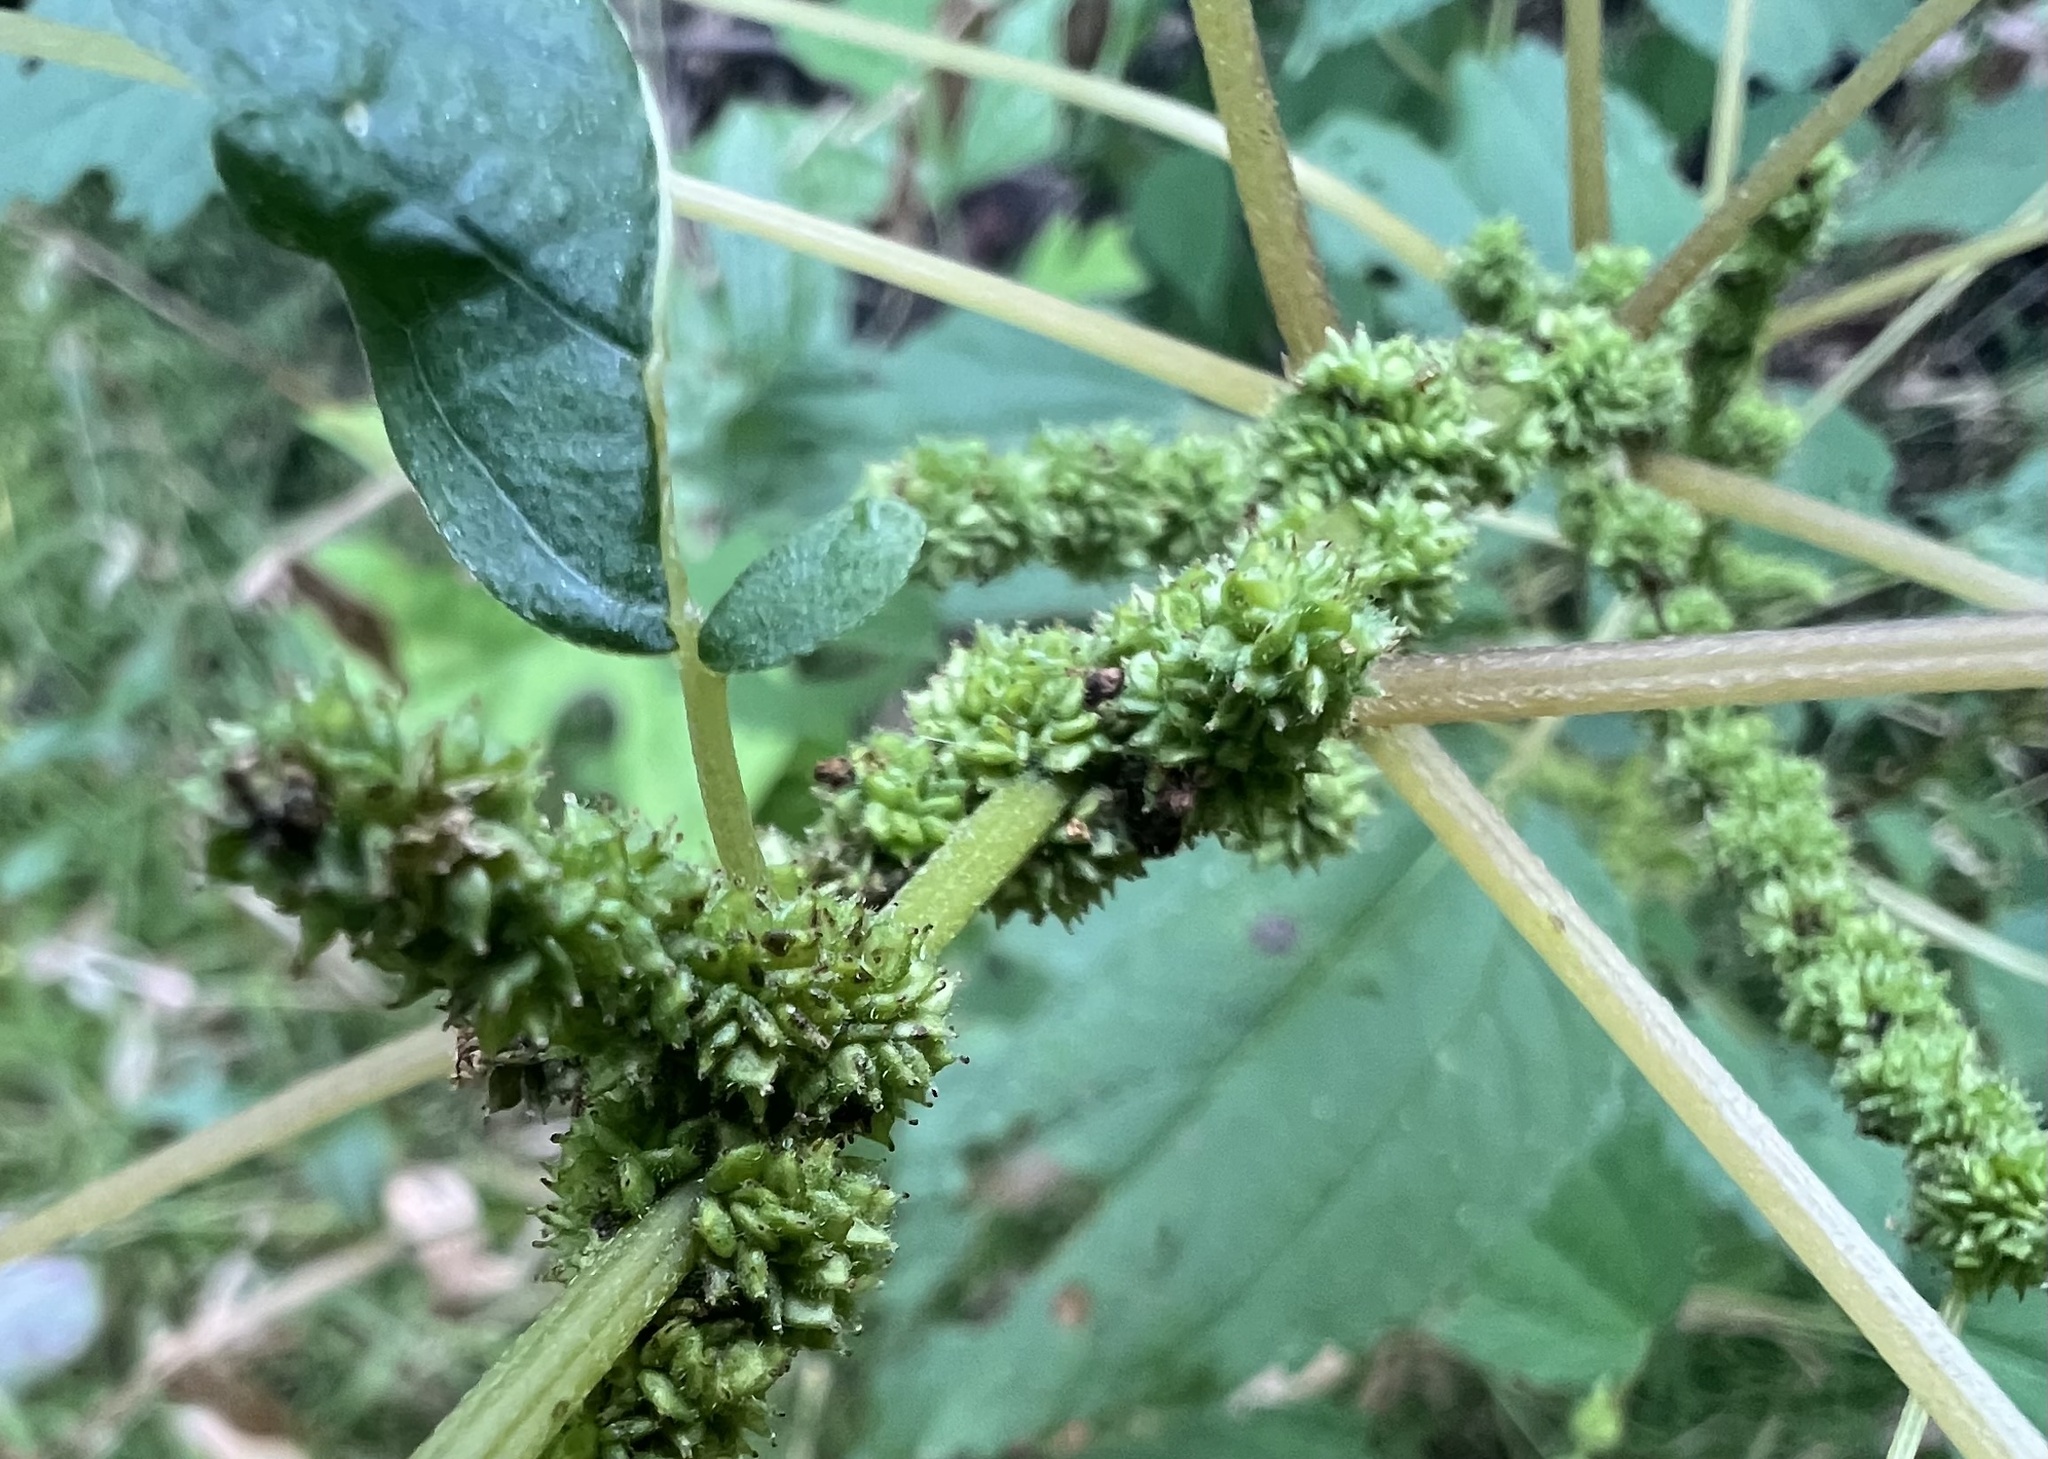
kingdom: Plantae
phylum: Tracheophyta
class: Magnoliopsida
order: Rosales
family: Urticaceae
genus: Boehmeria
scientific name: Boehmeria cylindrica
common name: Bog-hemp
